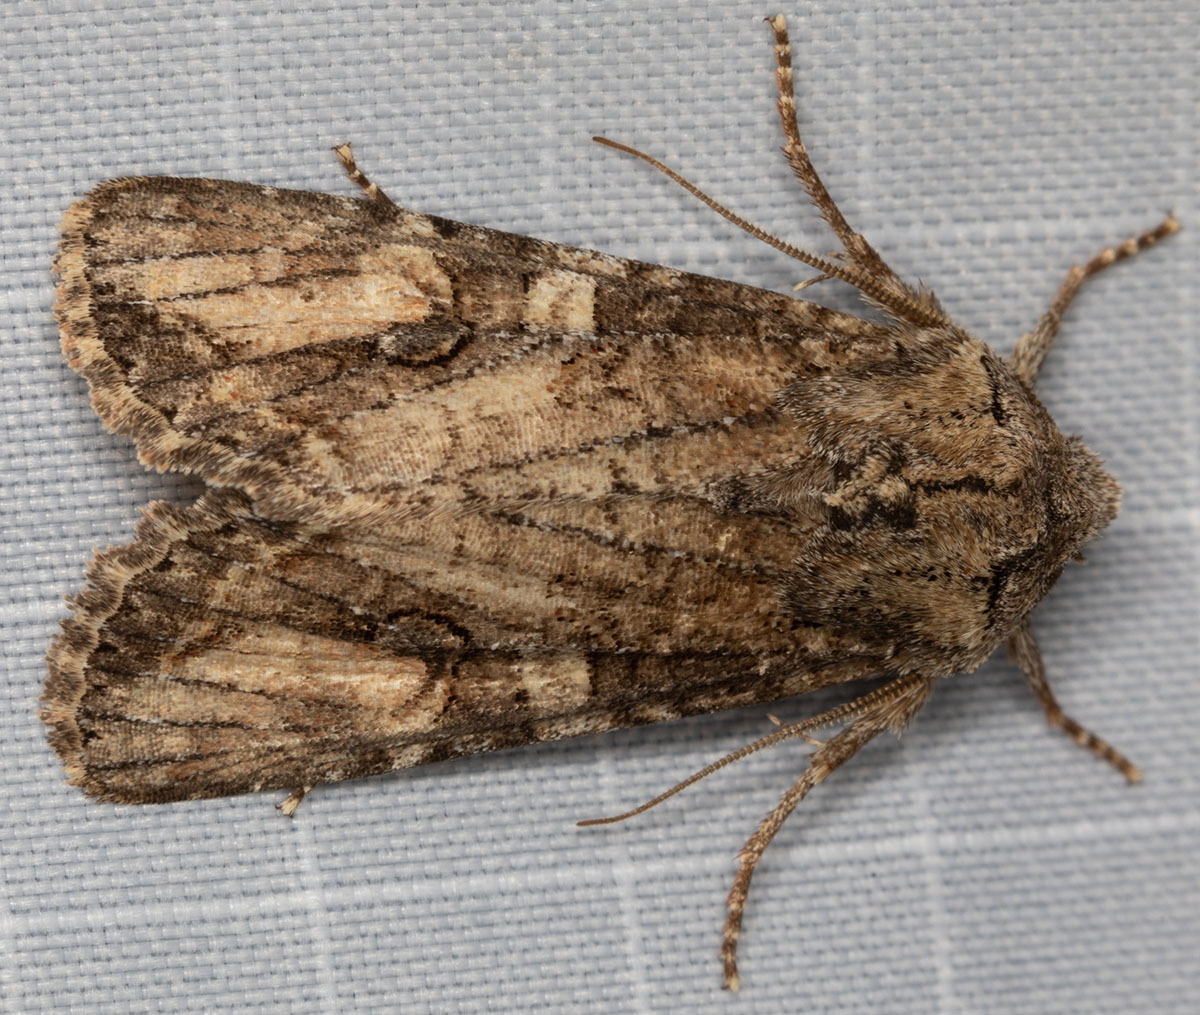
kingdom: Animalia
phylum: Arthropoda
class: Insecta
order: Lepidoptera
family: Noctuidae
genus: Egira
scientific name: Egira perlubens
